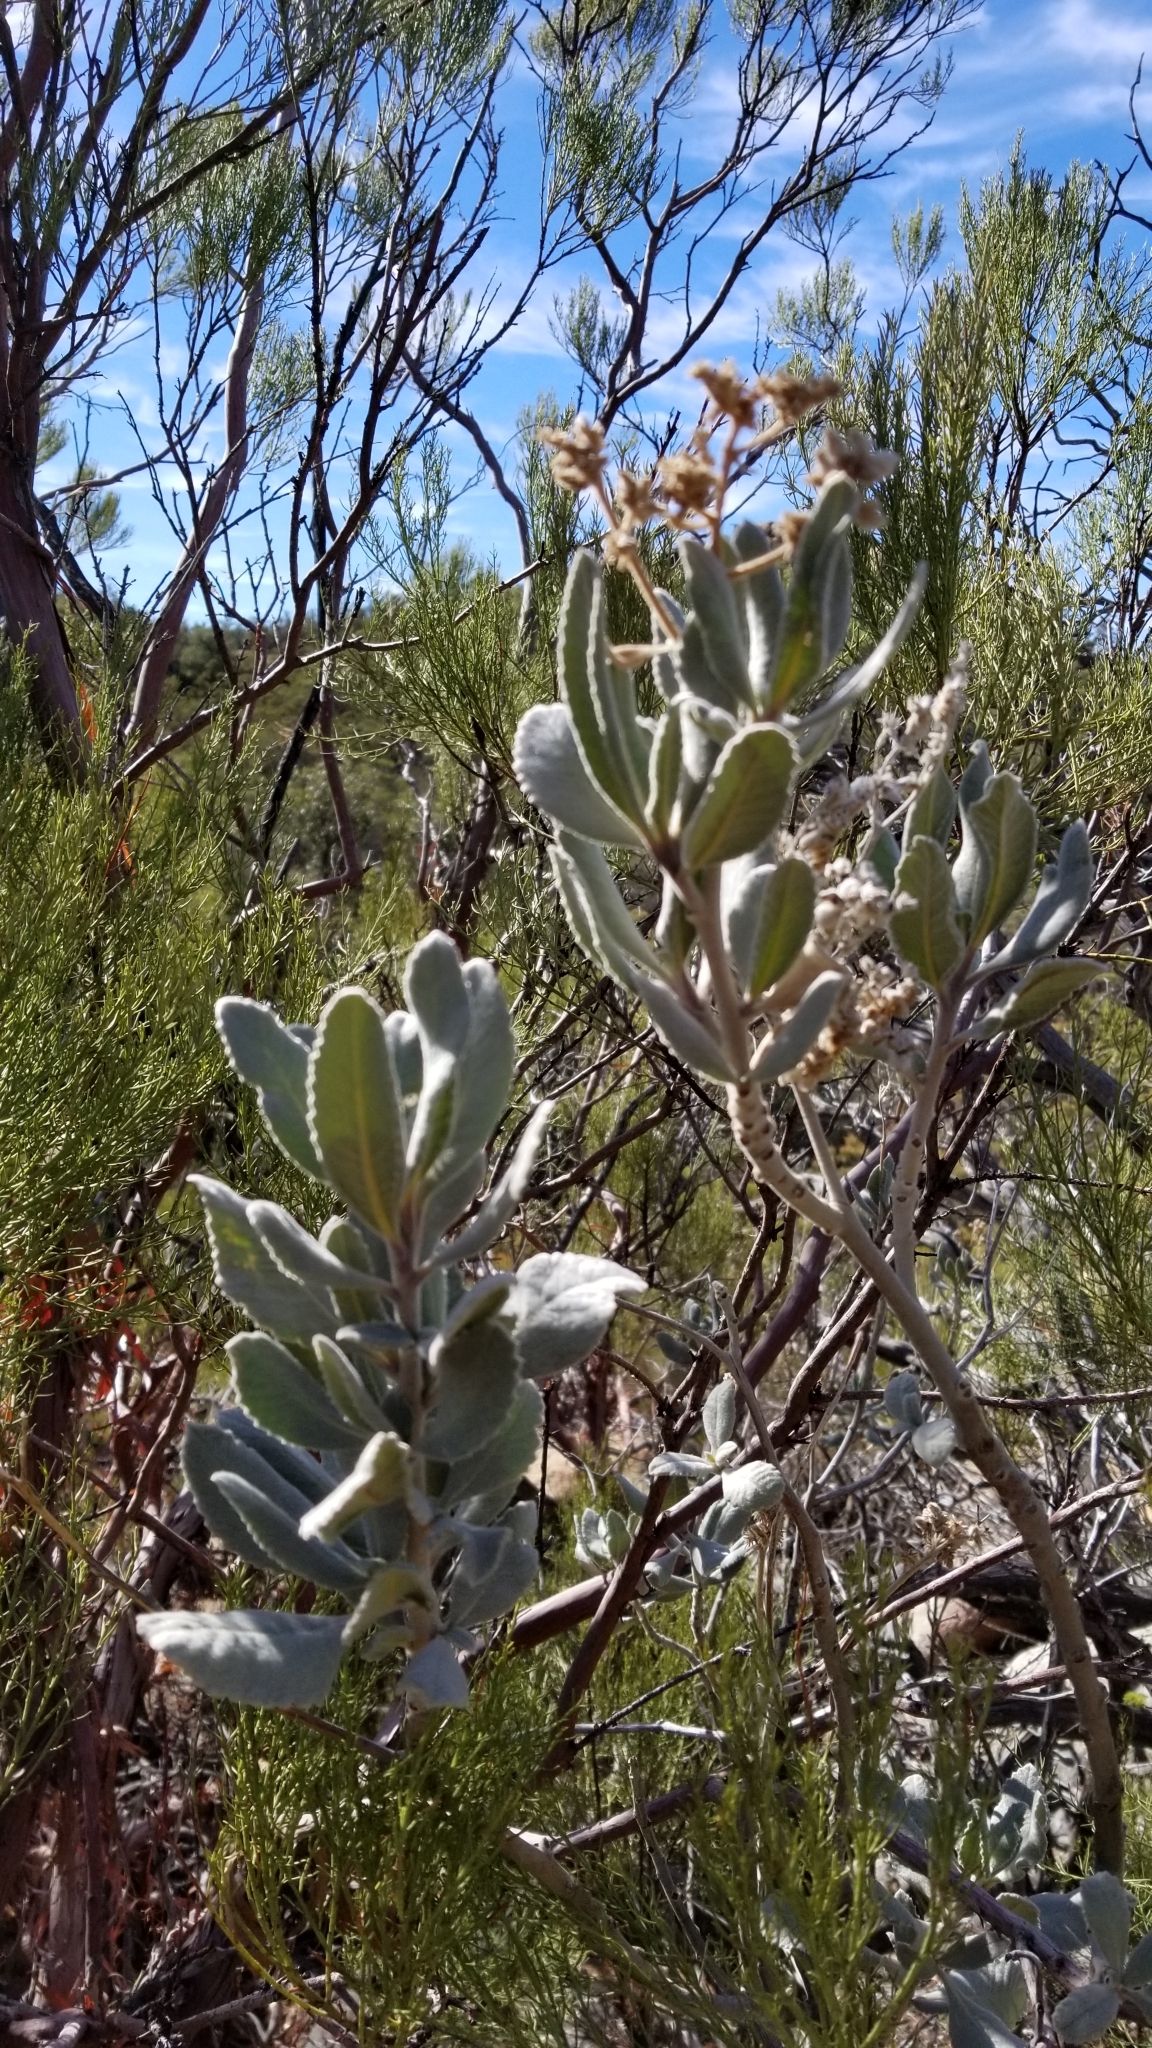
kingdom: Plantae
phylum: Tracheophyta
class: Magnoliopsida
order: Boraginales
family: Namaceae
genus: Eriodictyon
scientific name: Eriodictyon crassifolium
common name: Thick-leaf yerba-santa
